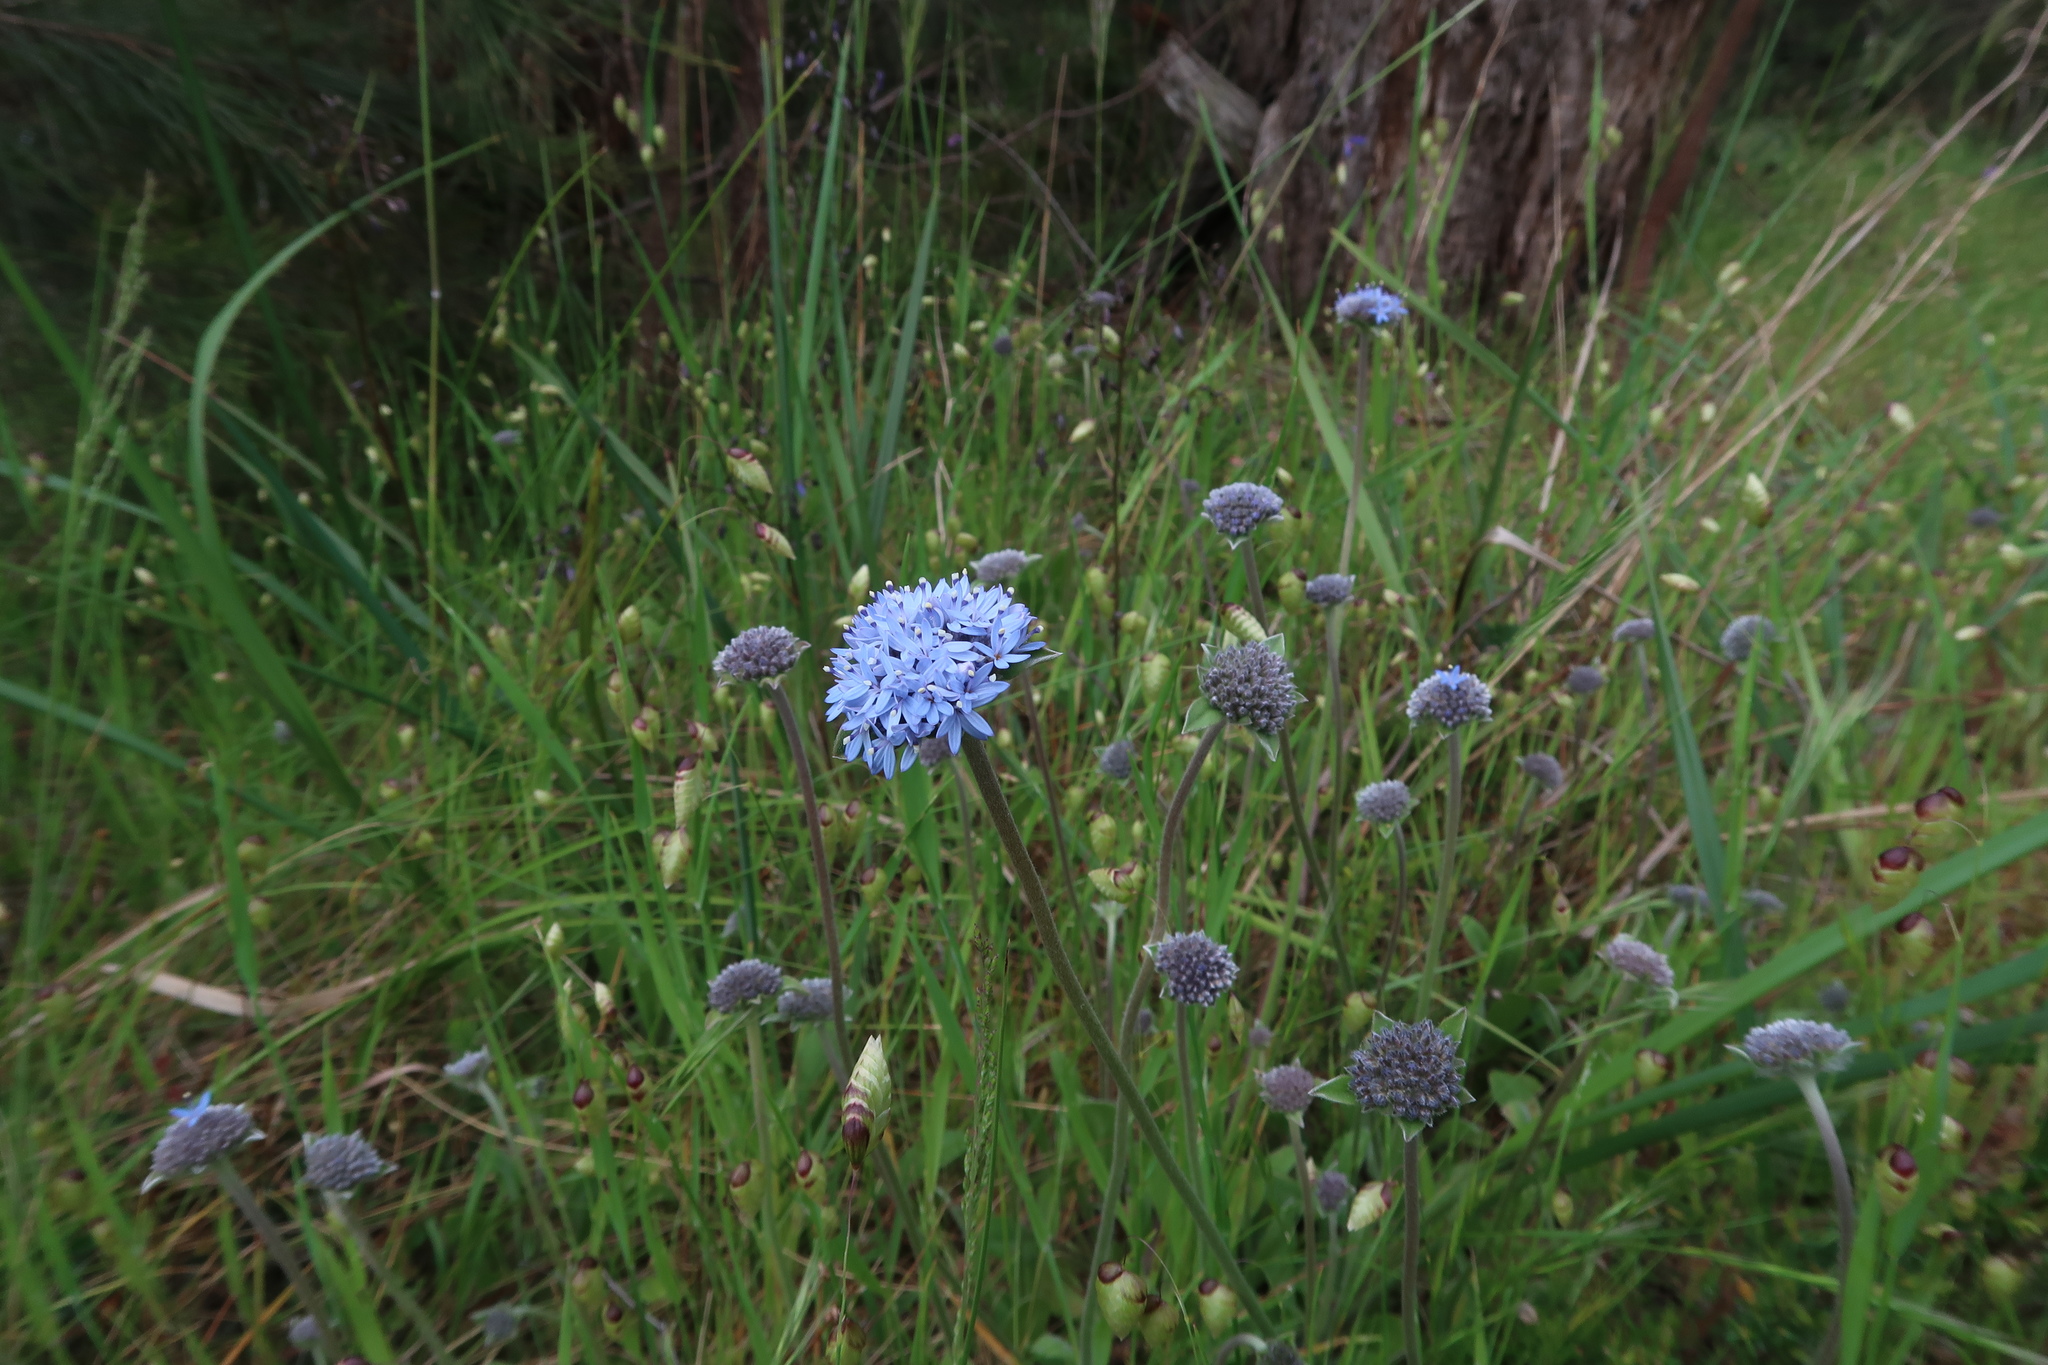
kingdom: Plantae
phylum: Tracheophyta
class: Magnoliopsida
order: Asterales
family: Goodeniaceae
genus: Brunonia
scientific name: Brunonia australis
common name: Blue pincushion
